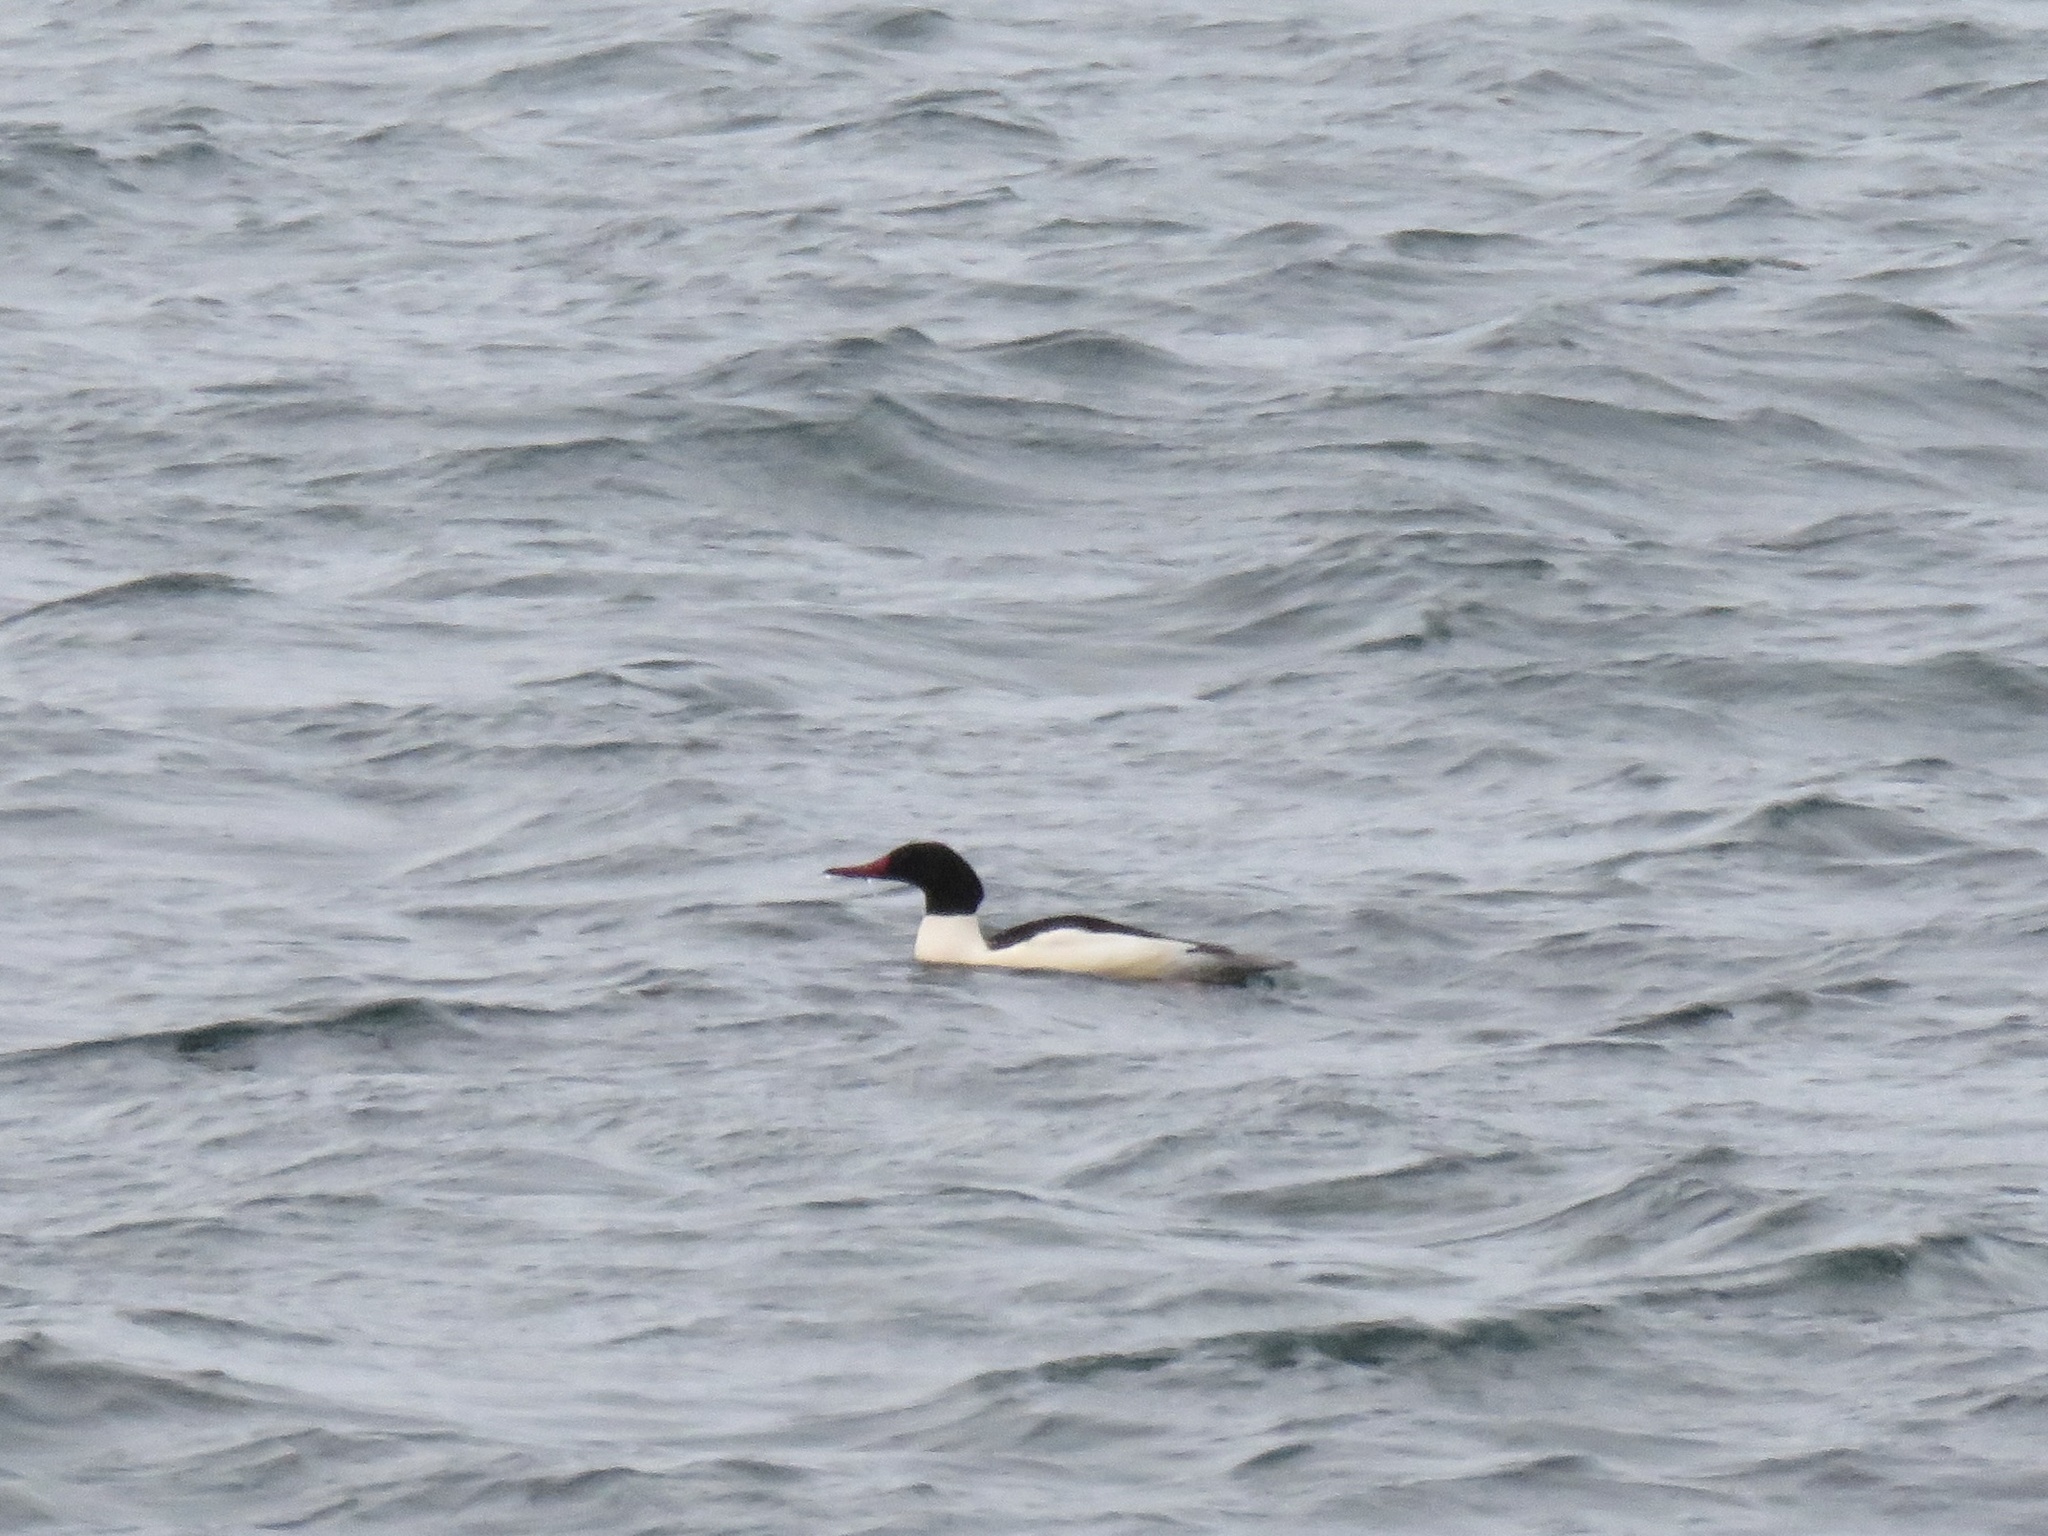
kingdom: Animalia
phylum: Chordata
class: Aves
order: Anseriformes
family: Anatidae
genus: Mergus
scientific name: Mergus merganser
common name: Common merganser
